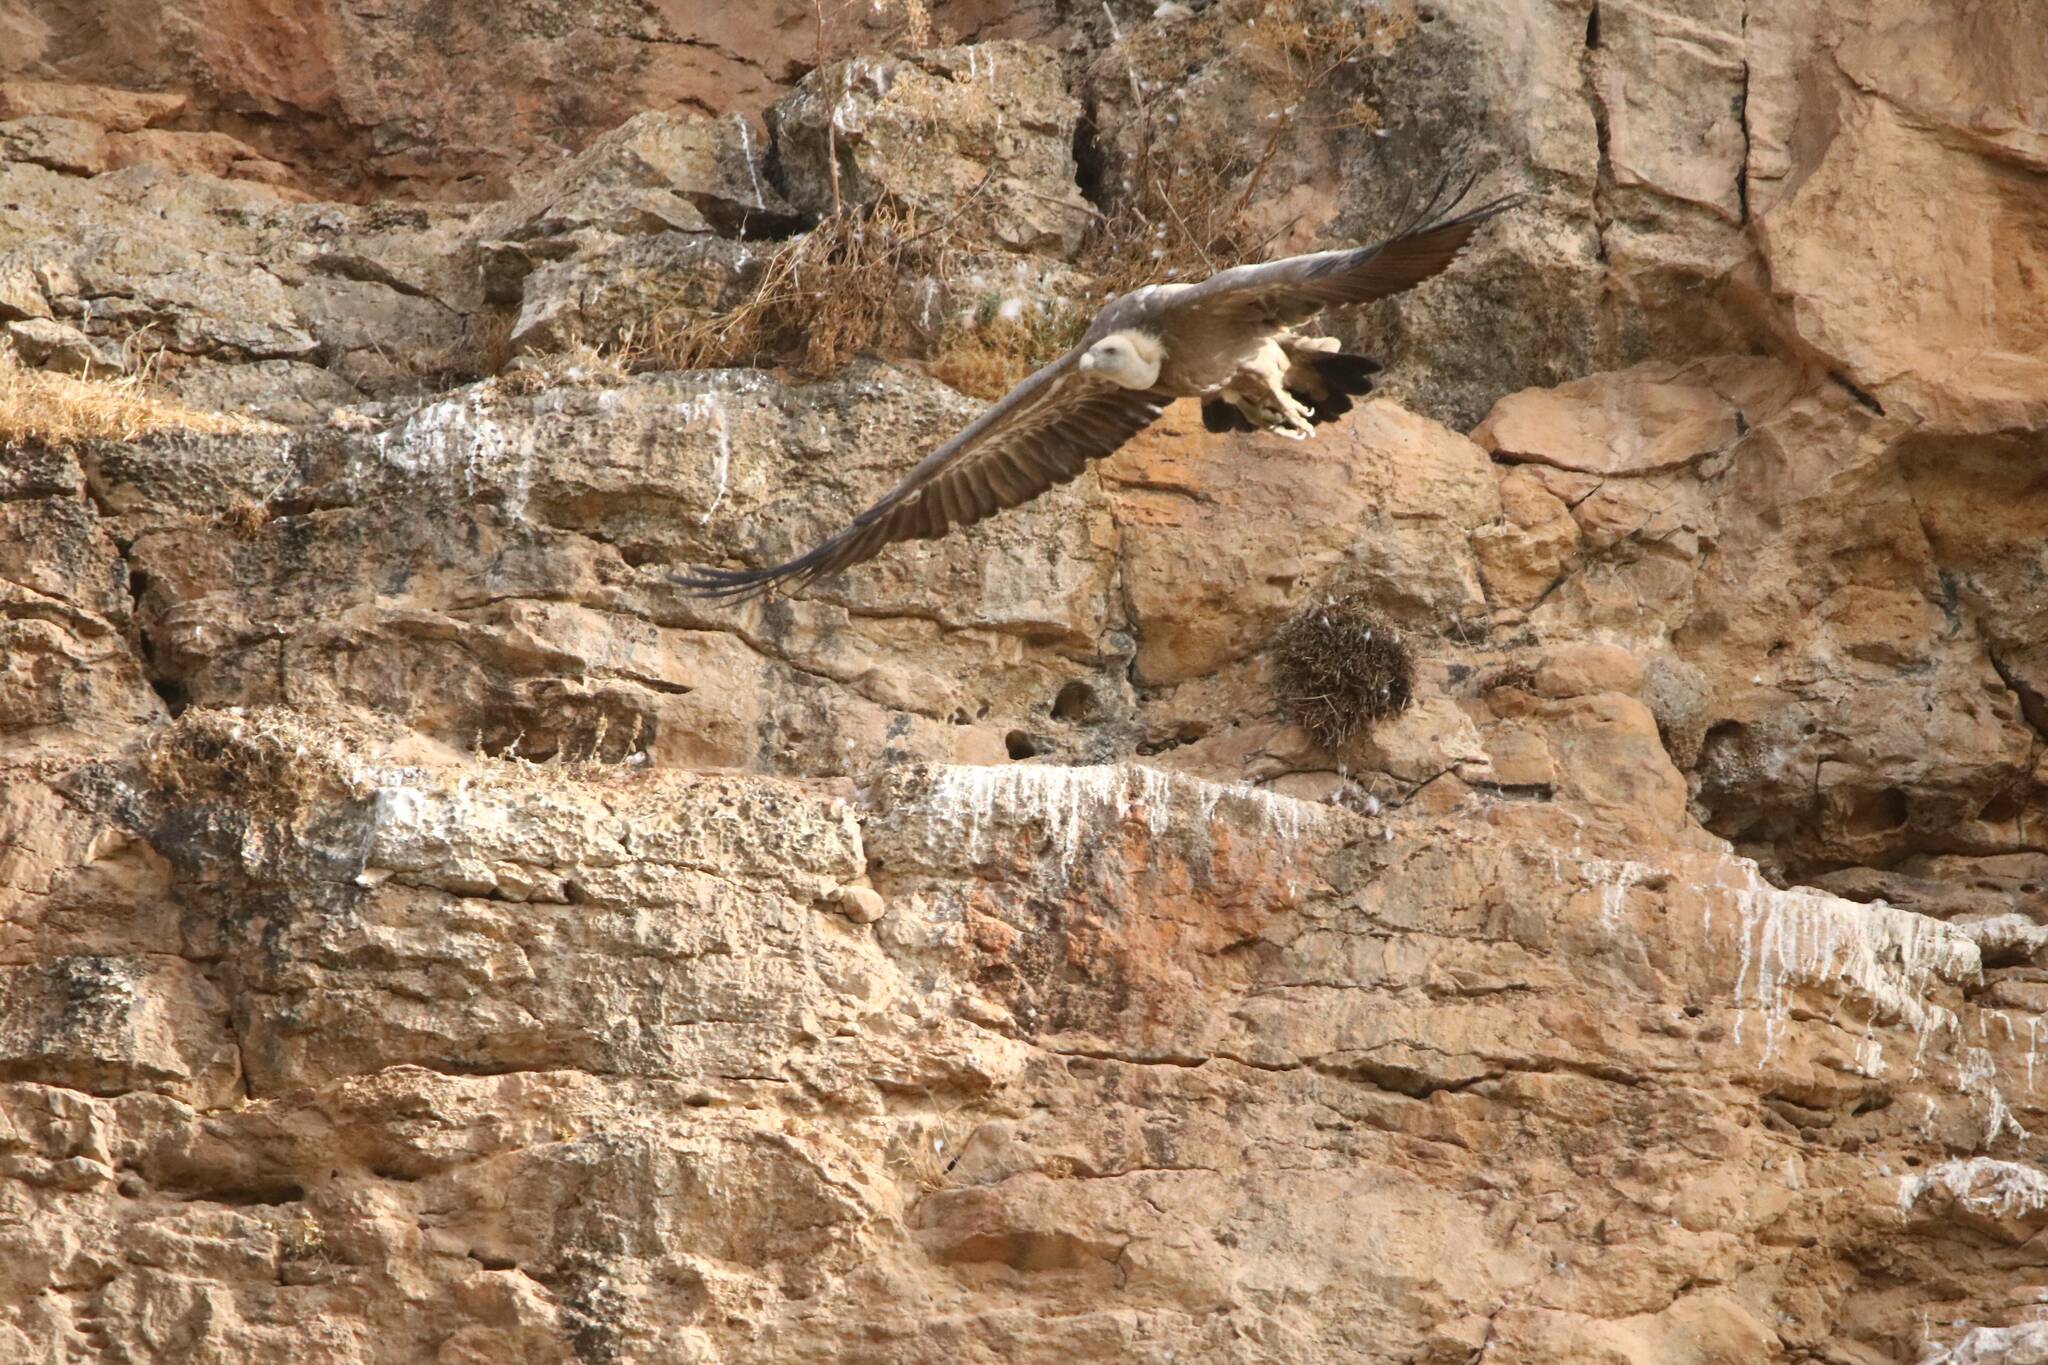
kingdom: Animalia
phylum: Chordata
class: Aves
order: Accipitriformes
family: Accipitridae
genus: Gyps
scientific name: Gyps fulvus
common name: Griffon vulture
